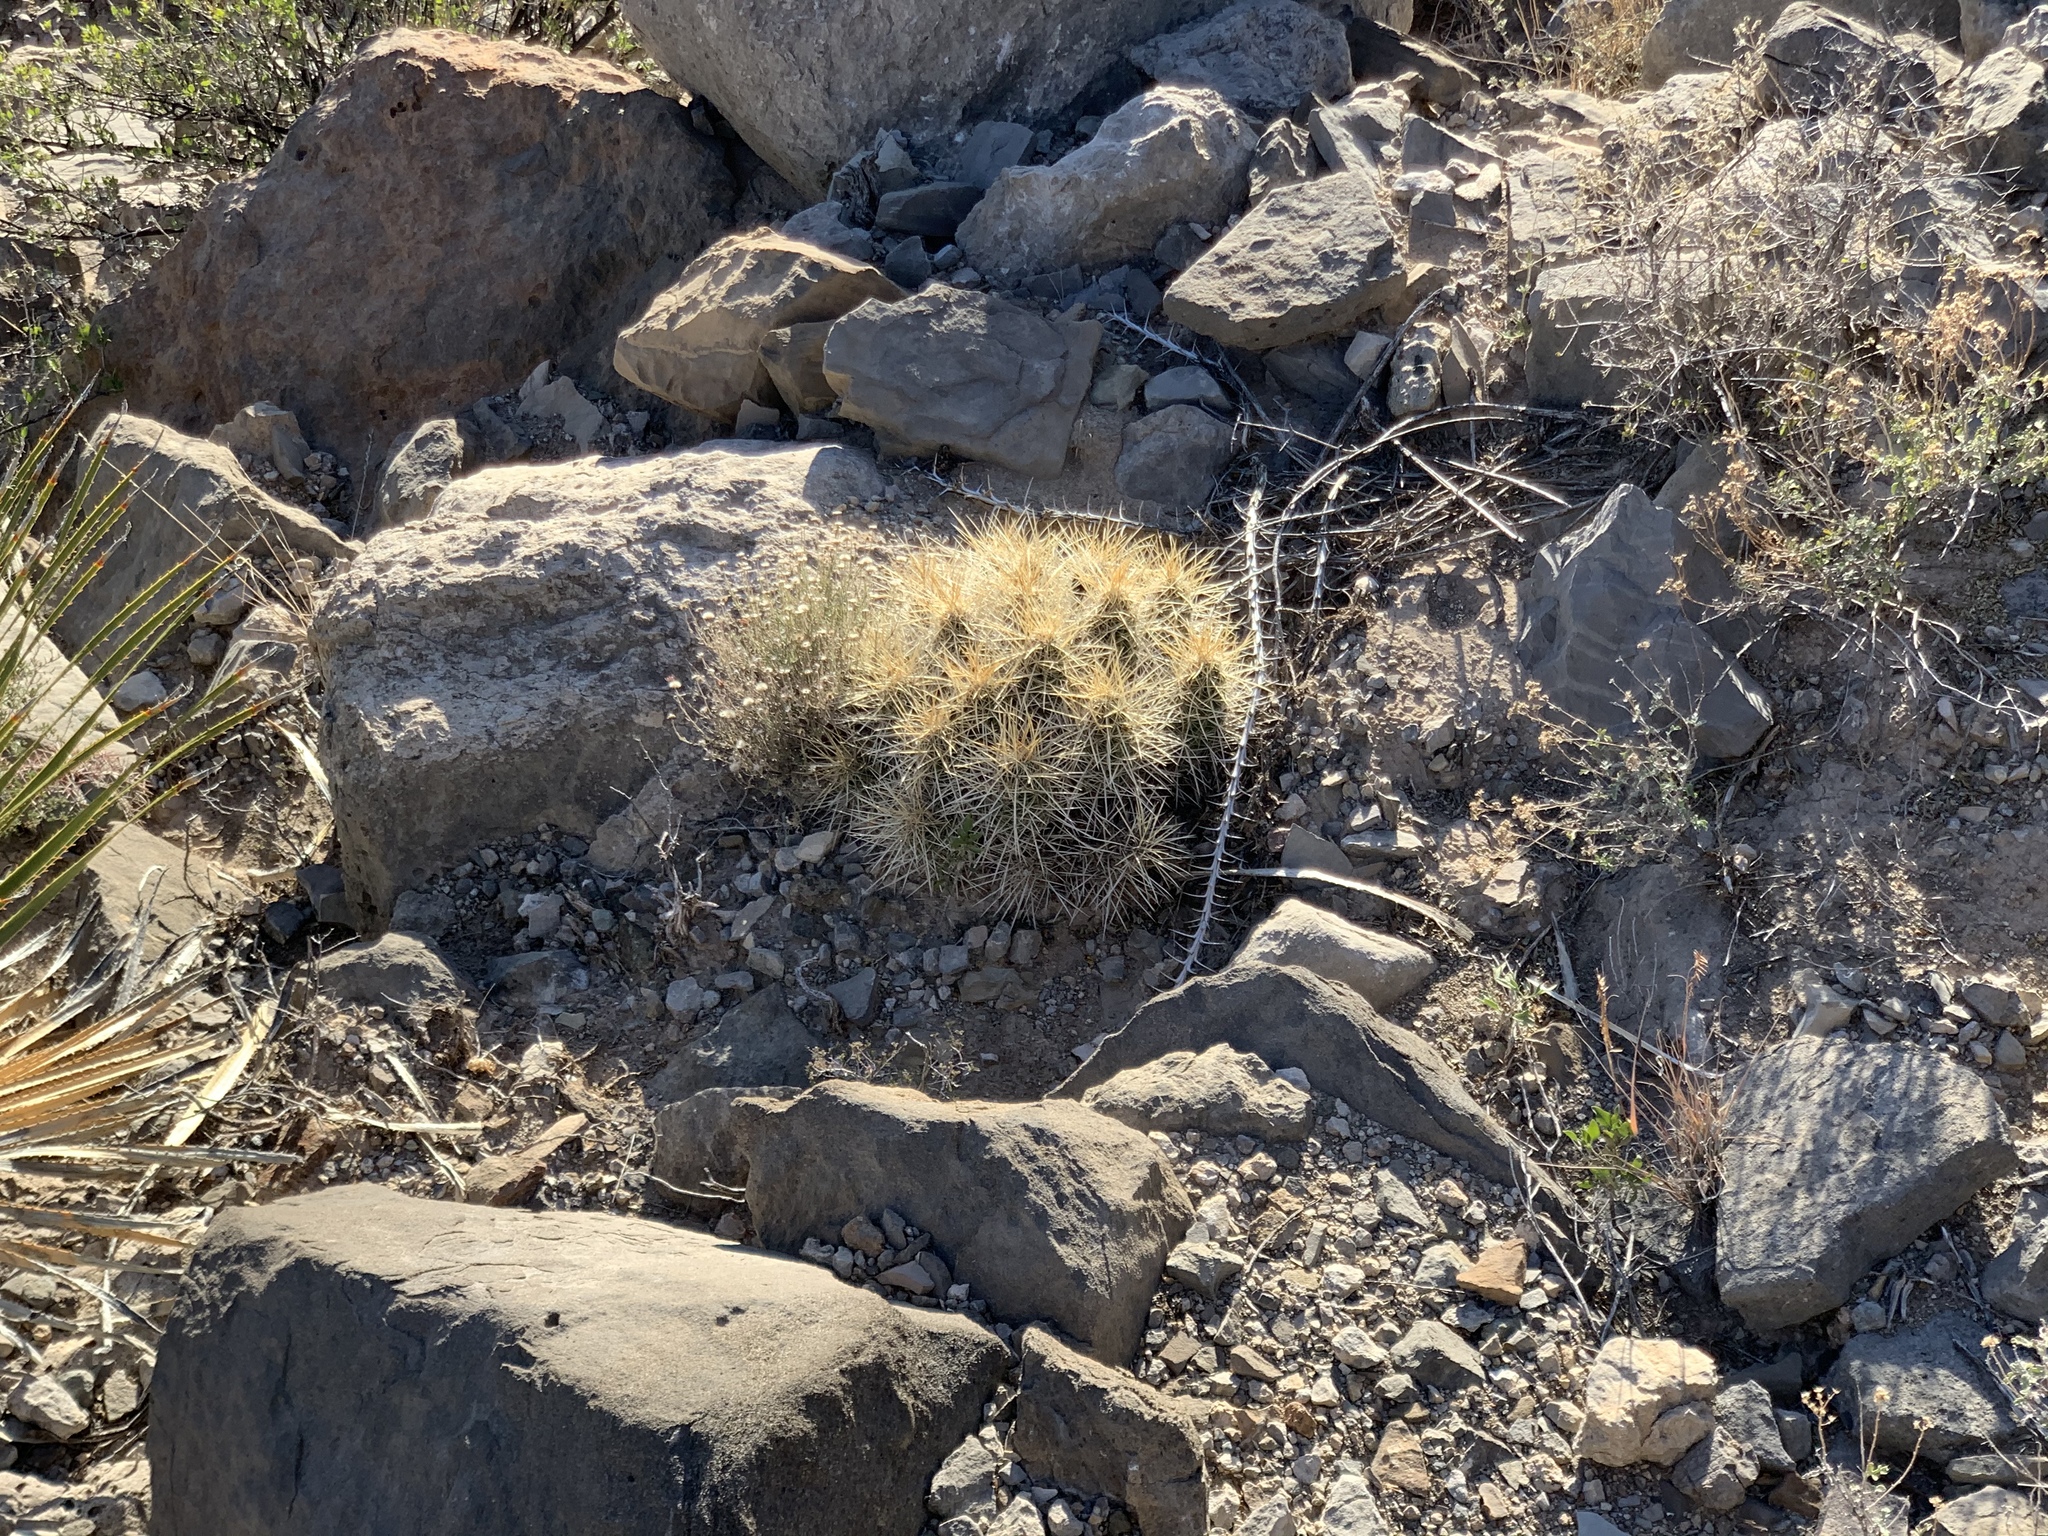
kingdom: Plantae
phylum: Tracheophyta
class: Magnoliopsida
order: Caryophyllales
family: Cactaceae
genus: Echinocereus
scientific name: Echinocereus stramineus
